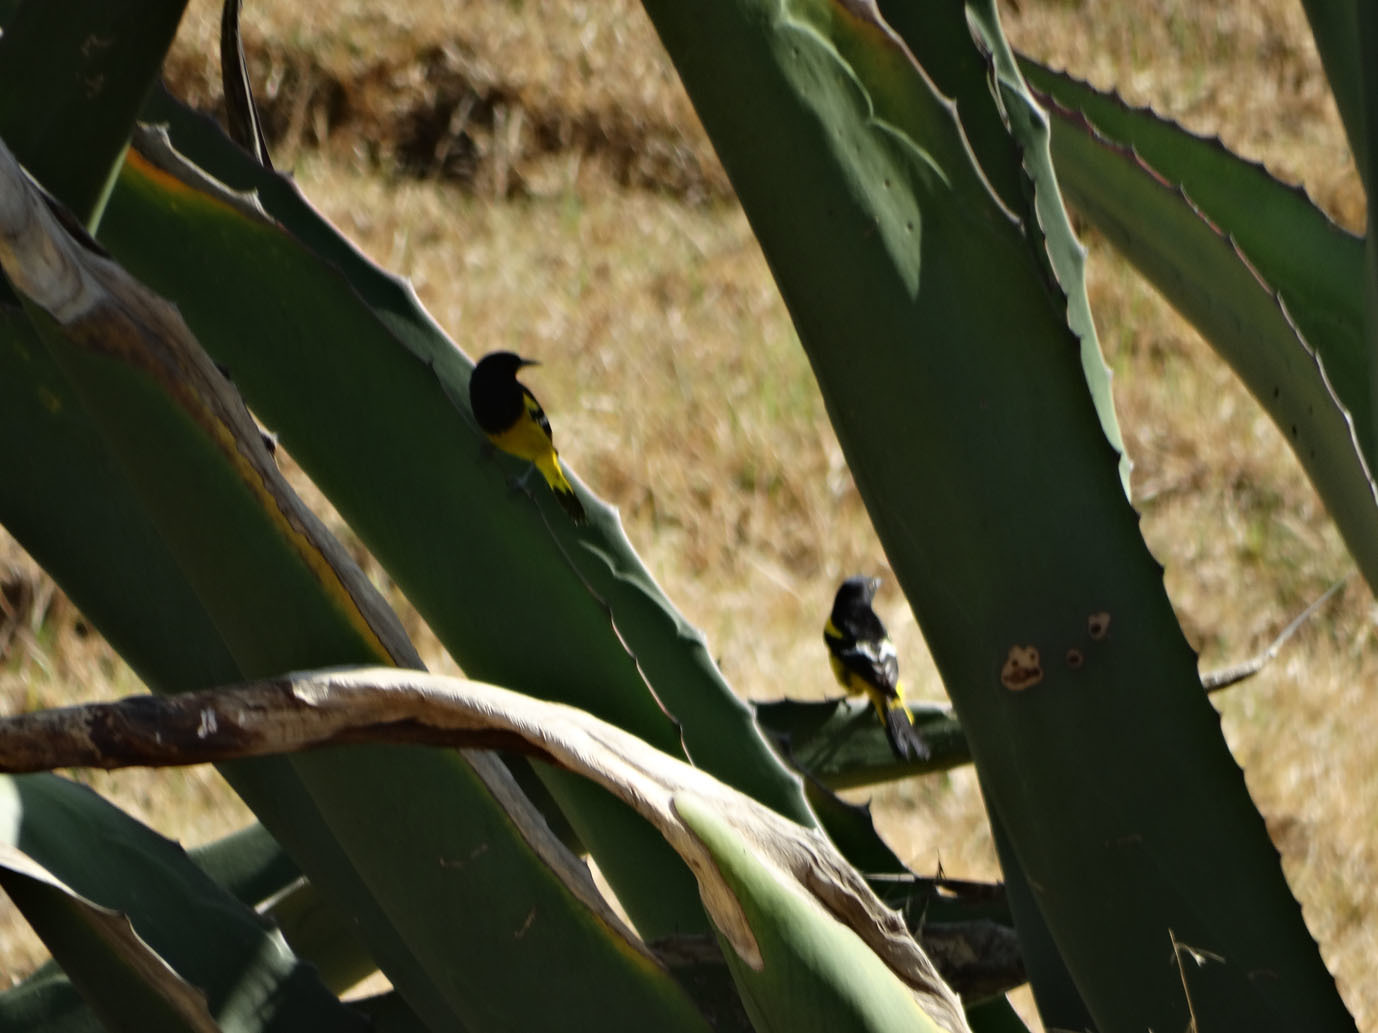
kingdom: Animalia
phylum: Chordata
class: Aves
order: Passeriformes
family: Icteridae
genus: Icterus
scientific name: Icterus parisorum
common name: Scott's oriole
